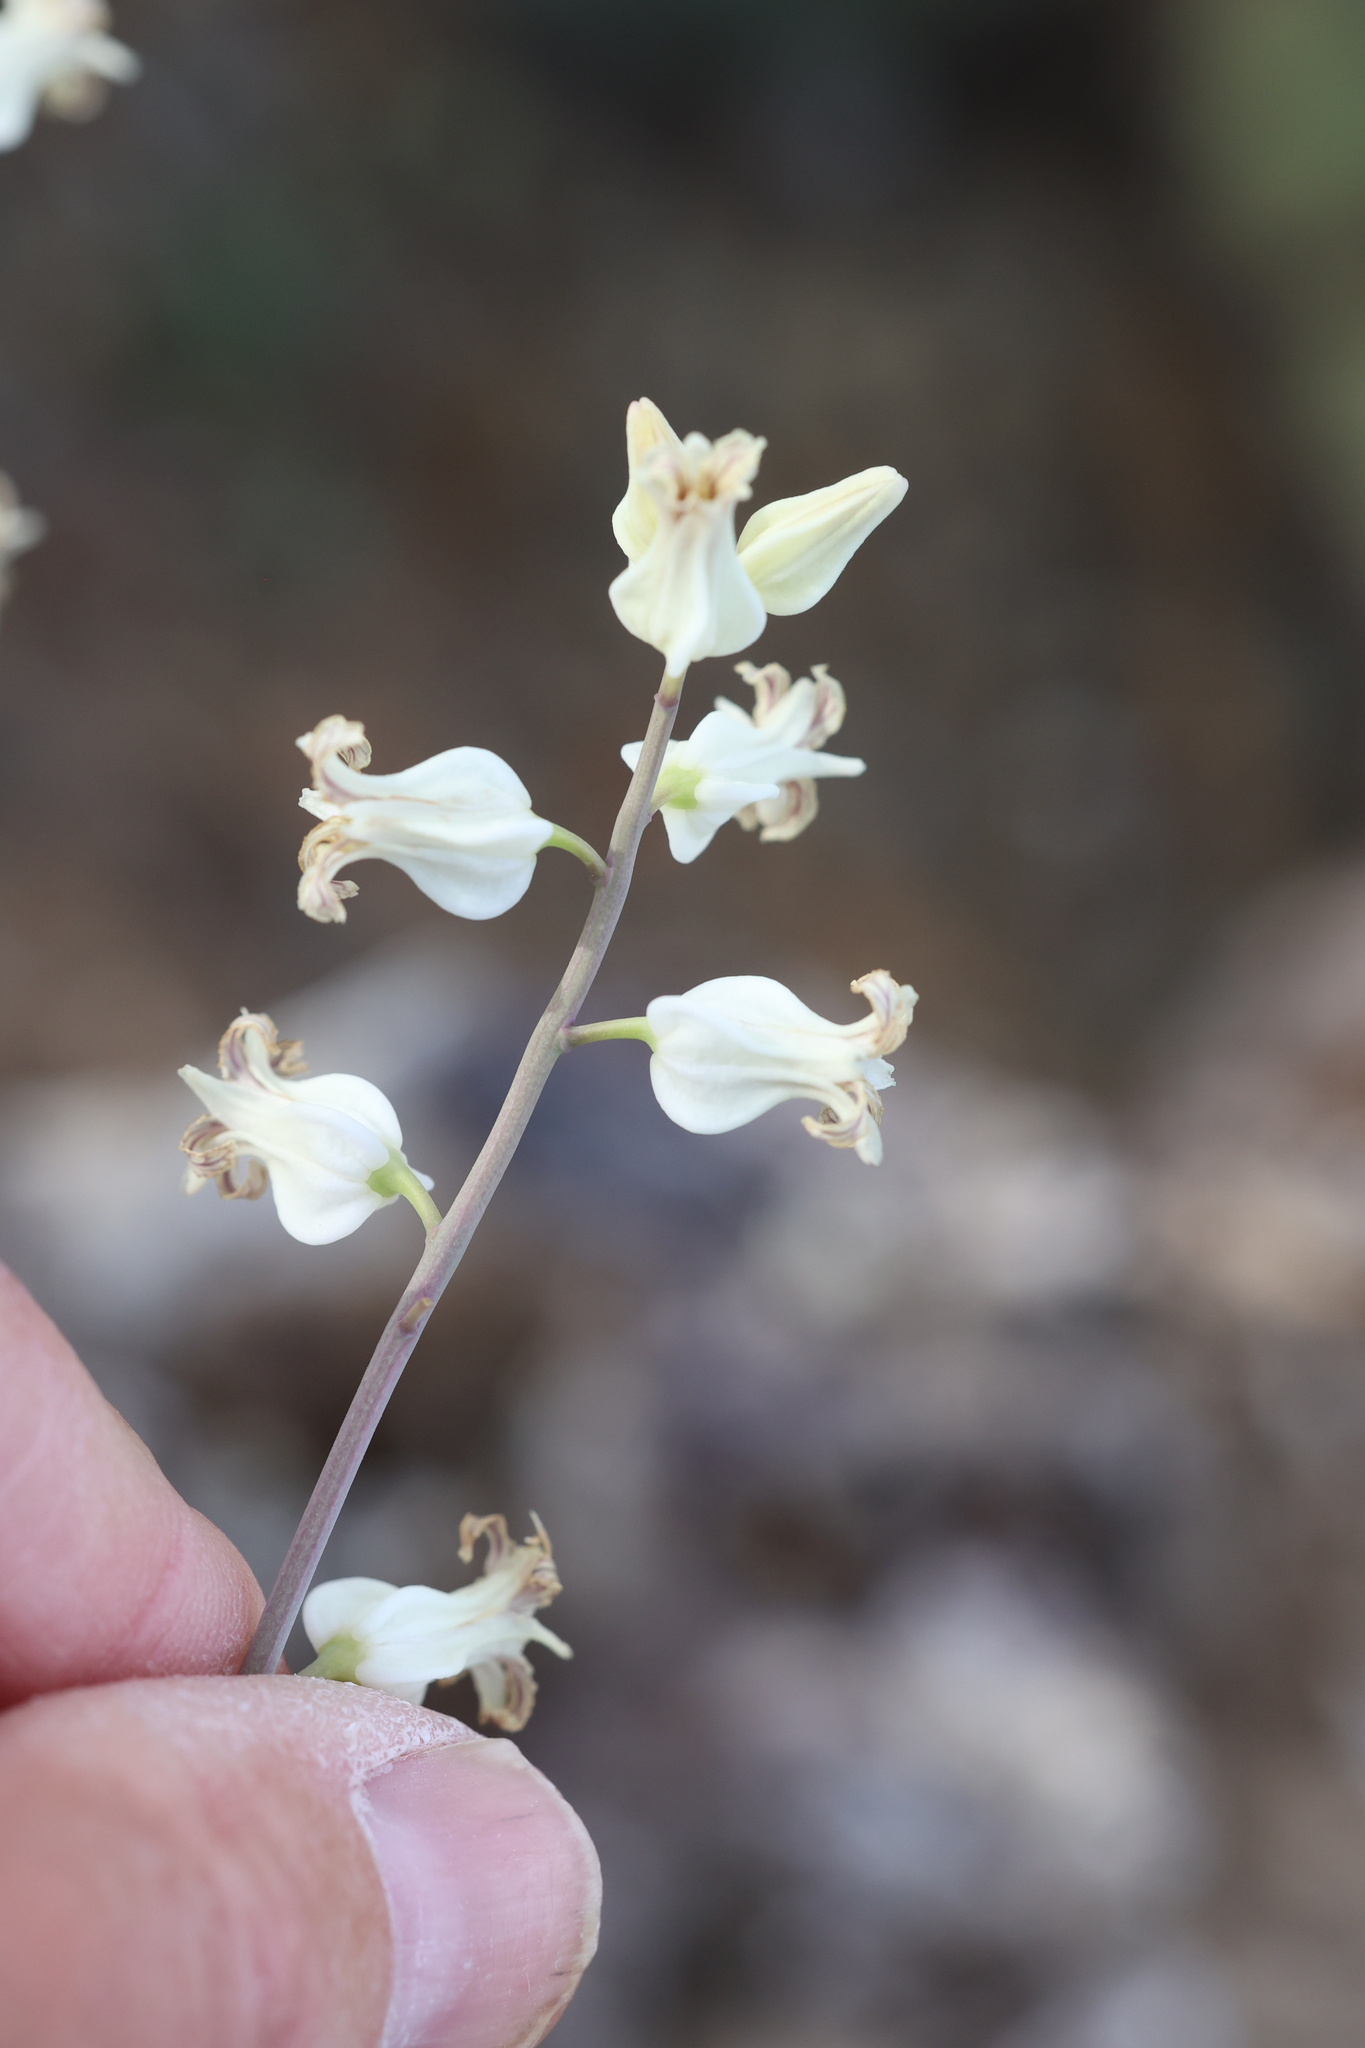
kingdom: Plantae
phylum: Tracheophyta
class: Magnoliopsida
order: Brassicales
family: Brassicaceae
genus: Streptanthus
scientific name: Streptanthus carinatus
